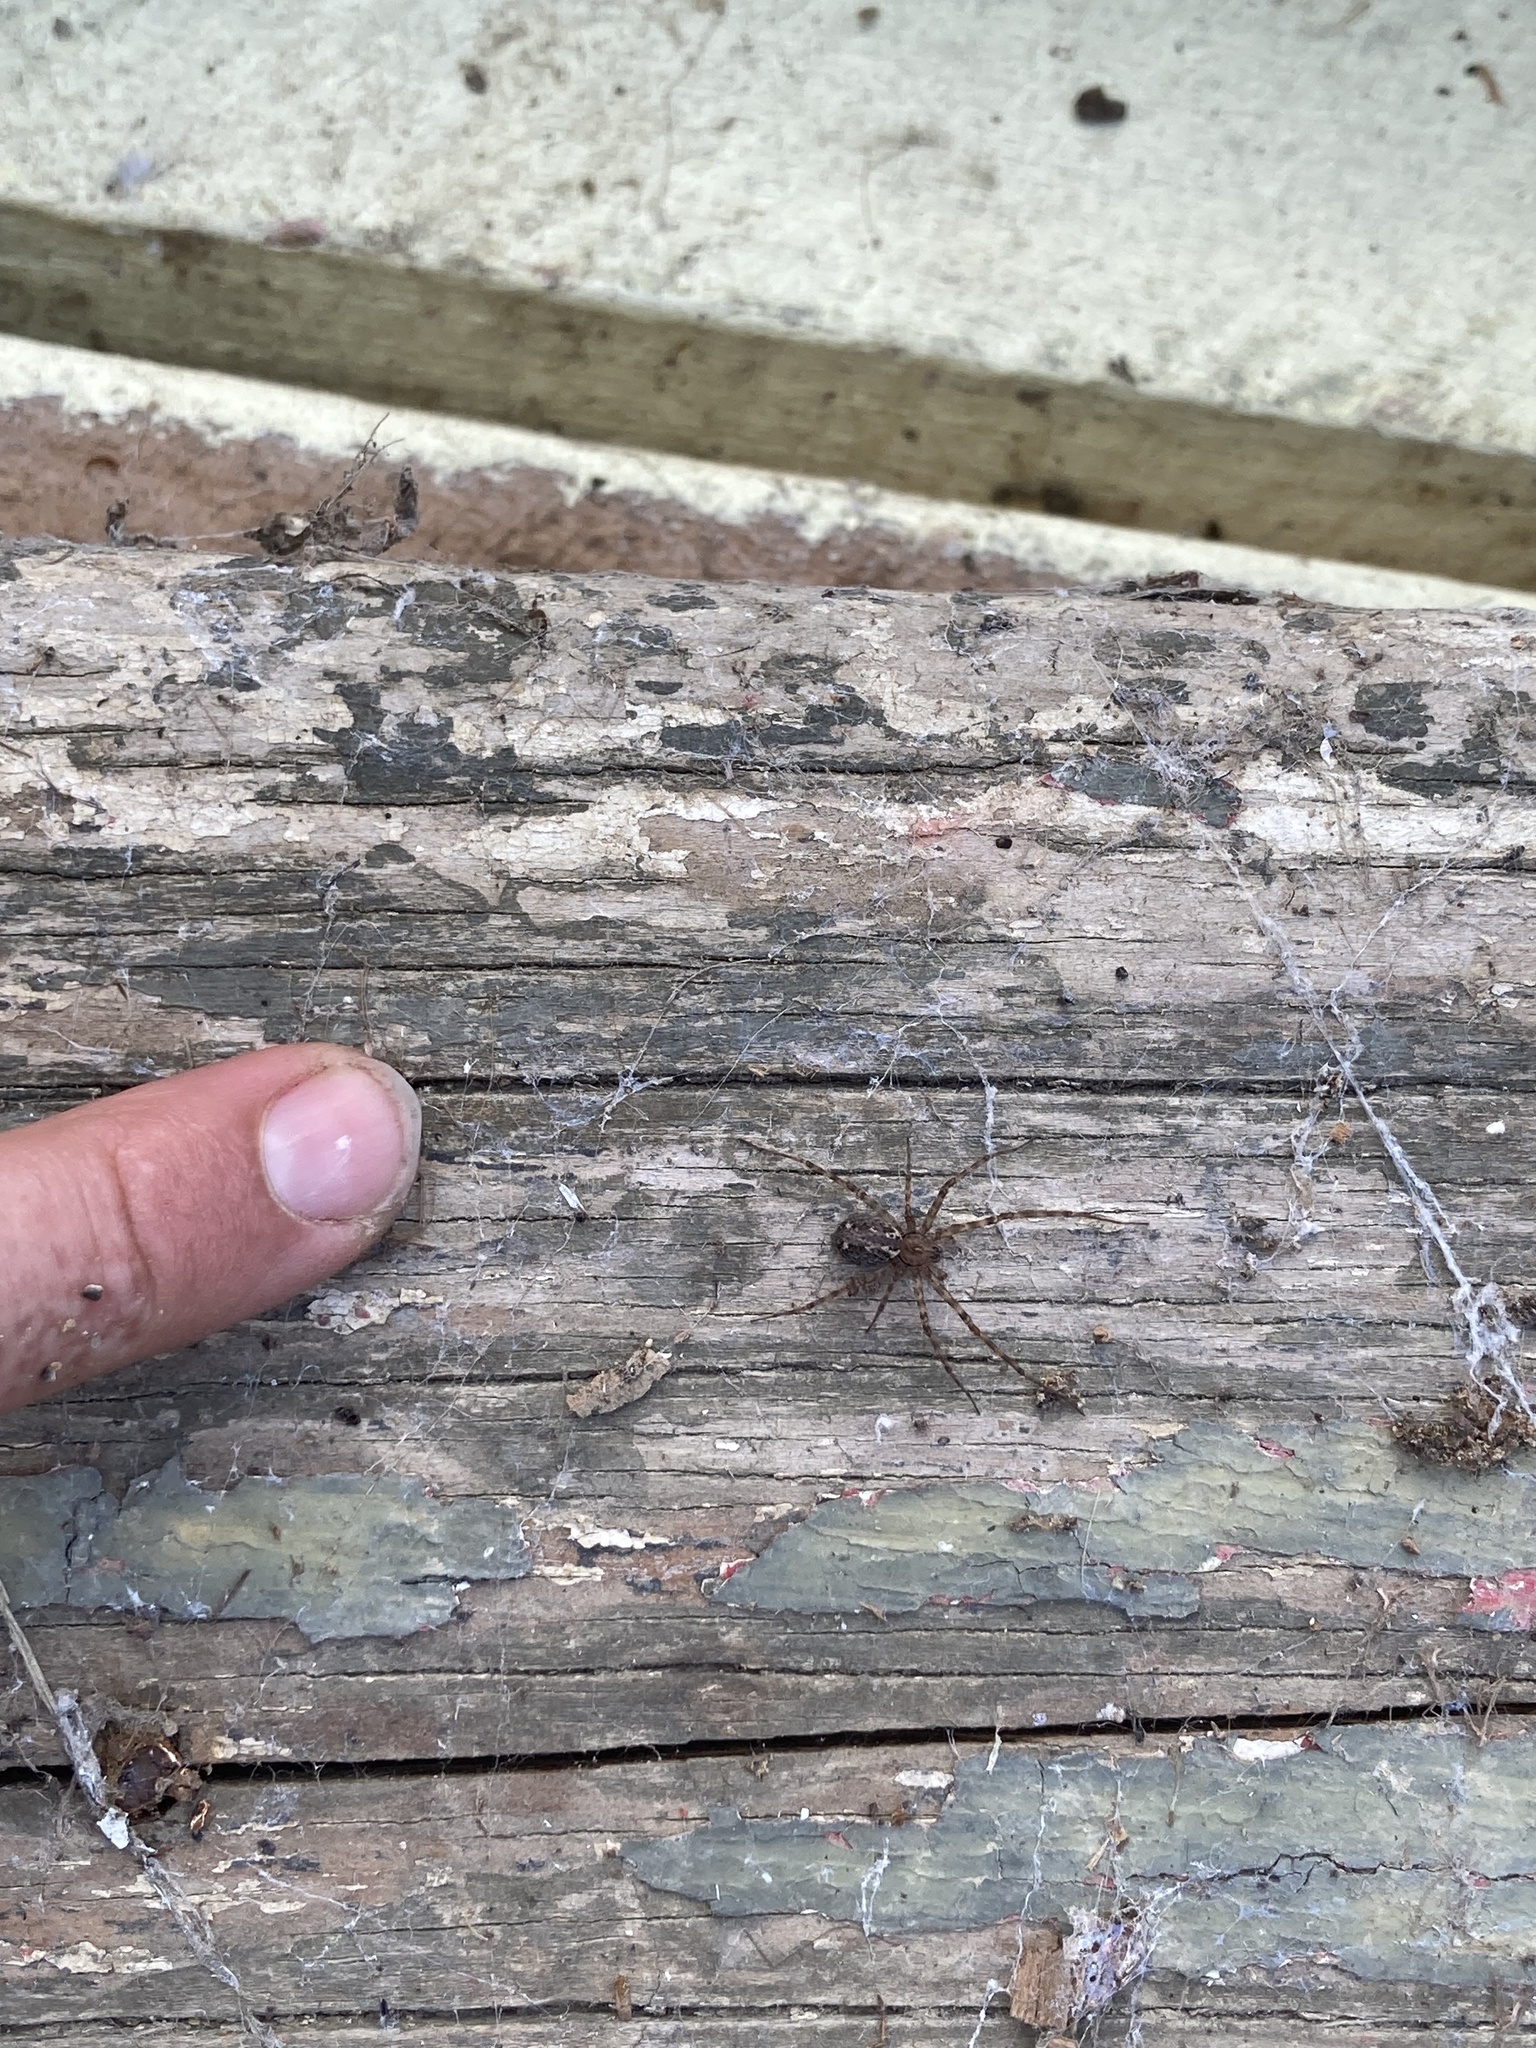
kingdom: Animalia
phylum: Arthropoda
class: Arachnida
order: Araneae
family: Stiphidiidae
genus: Stiphidion
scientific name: Stiphidion facetum
